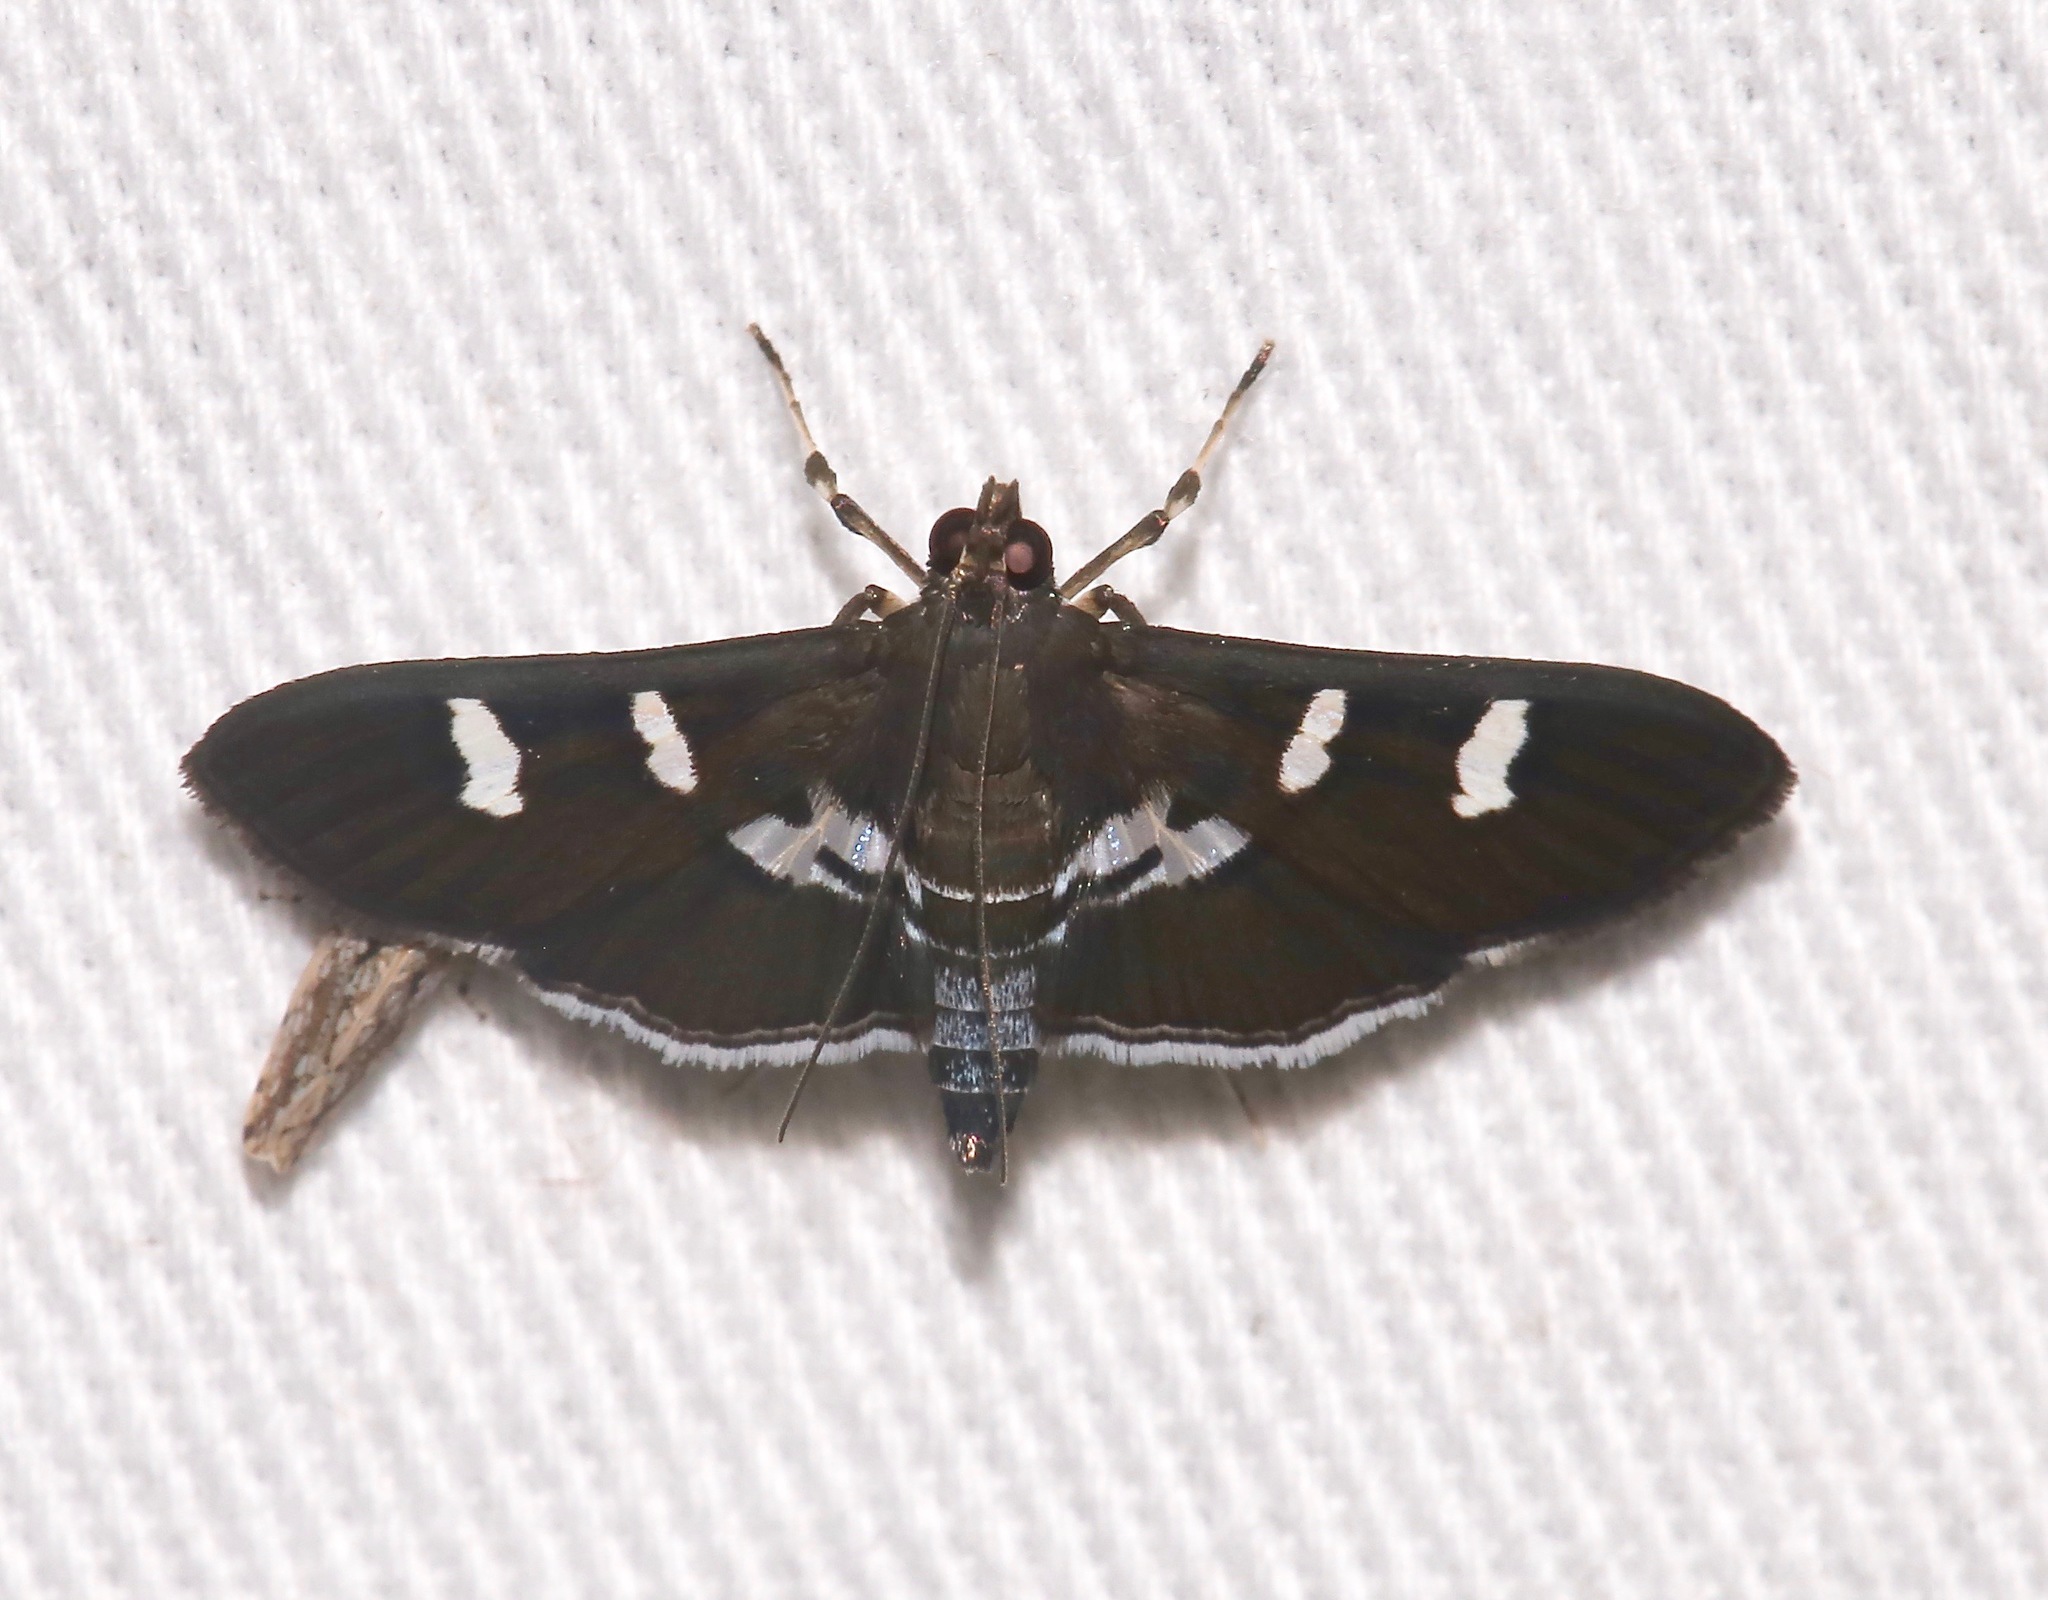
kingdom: Animalia
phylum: Arthropoda
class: Insecta
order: Lepidoptera
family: Crambidae
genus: Desmia
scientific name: Desmia deploralis
